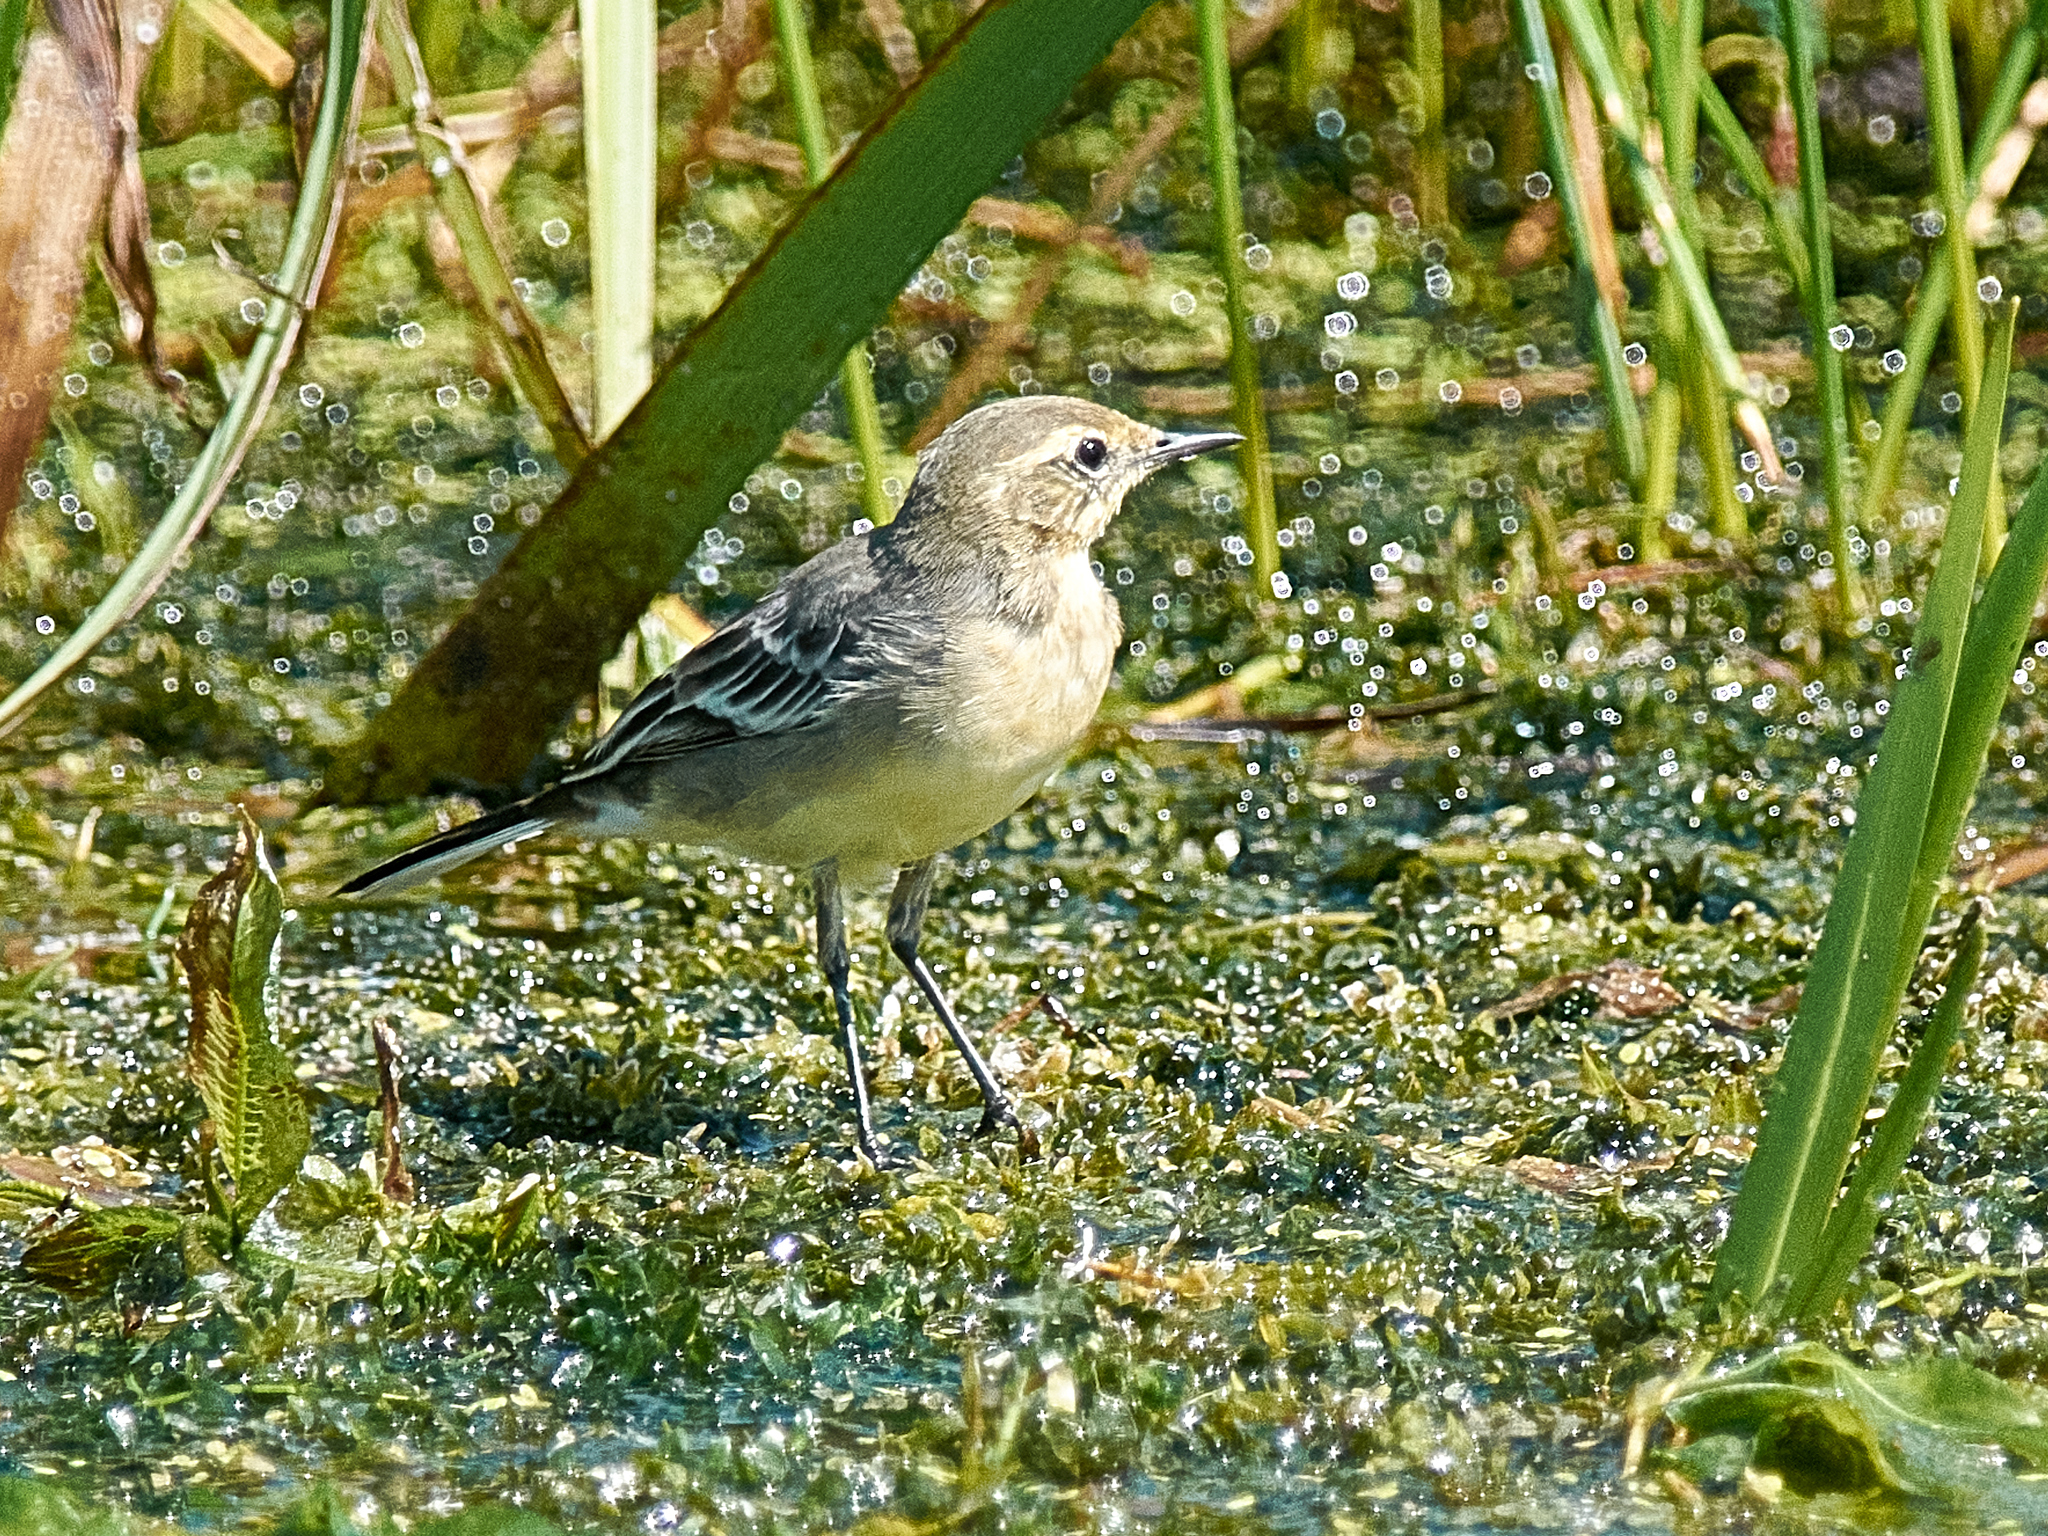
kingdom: Animalia
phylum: Chordata
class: Aves
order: Passeriformes
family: Motacillidae
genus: Motacilla
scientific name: Motacilla citreola
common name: Citrine wagtail
